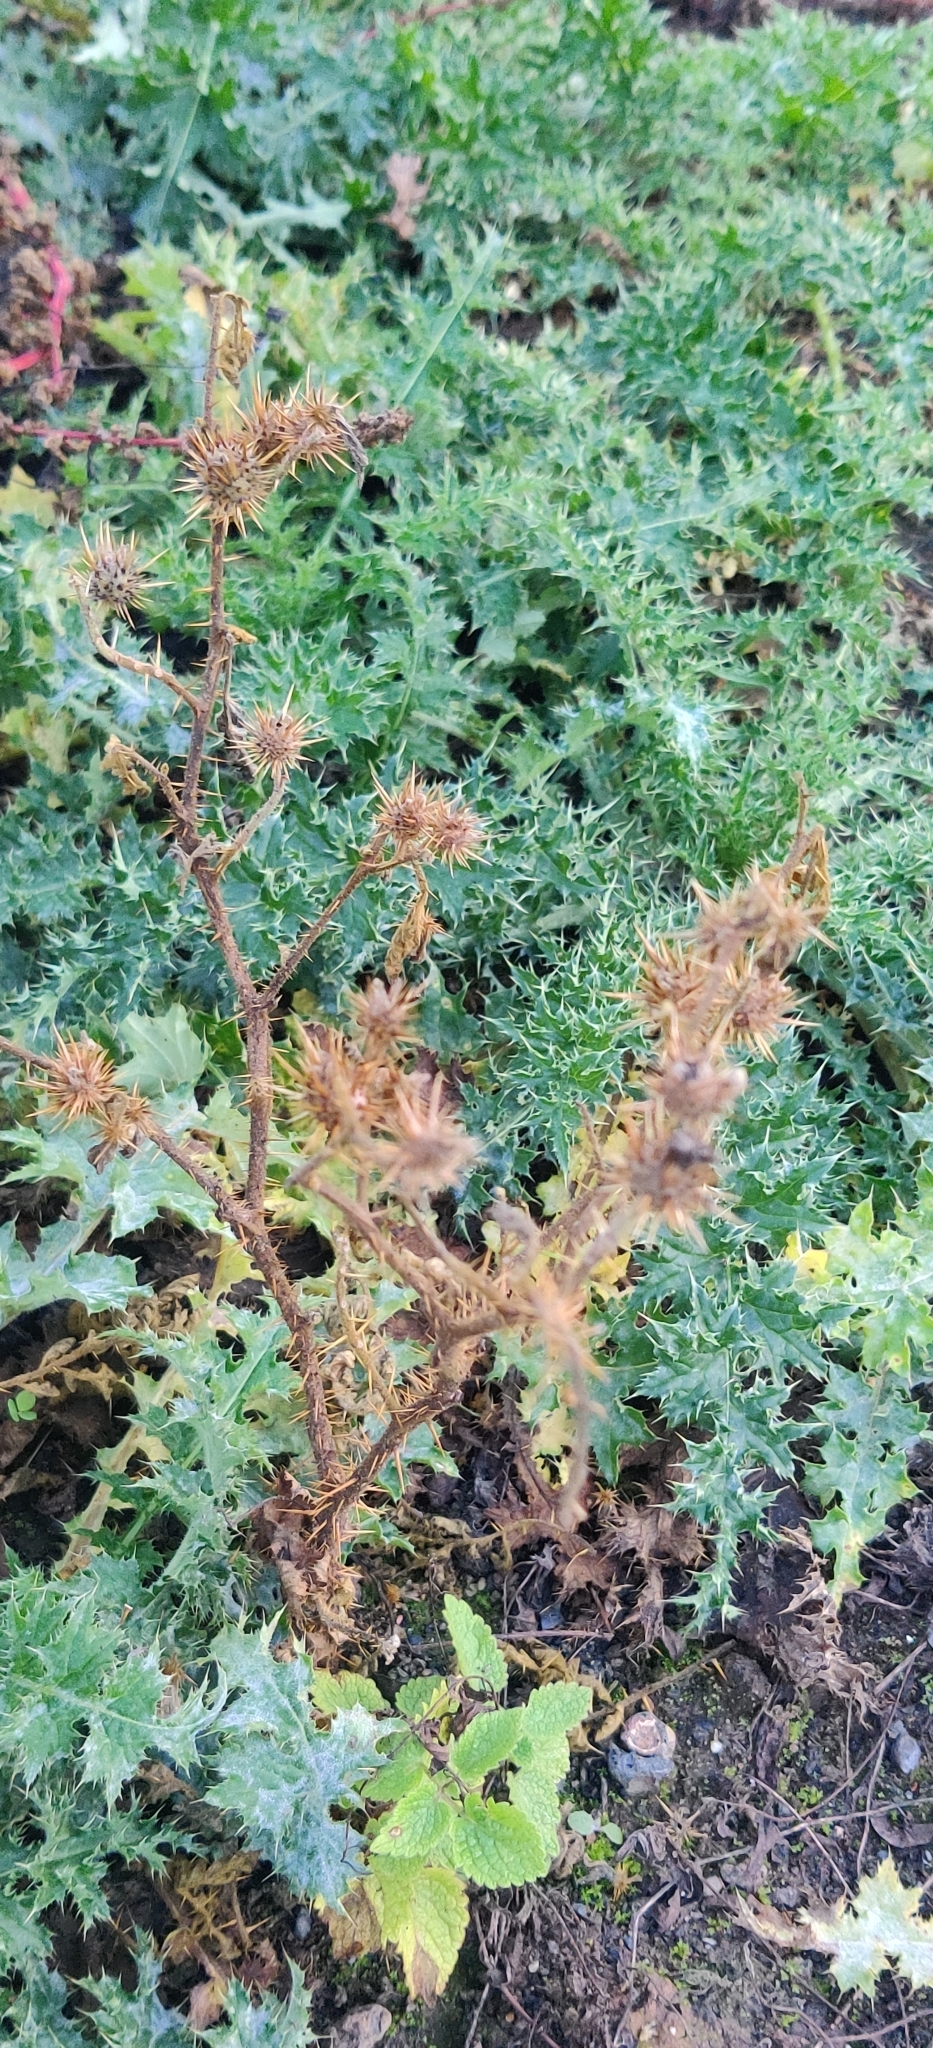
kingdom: Plantae
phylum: Tracheophyta
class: Magnoliopsida
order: Solanales
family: Solanaceae
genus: Solanum
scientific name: Solanum angustifolium
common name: Buffalobur nightshade
